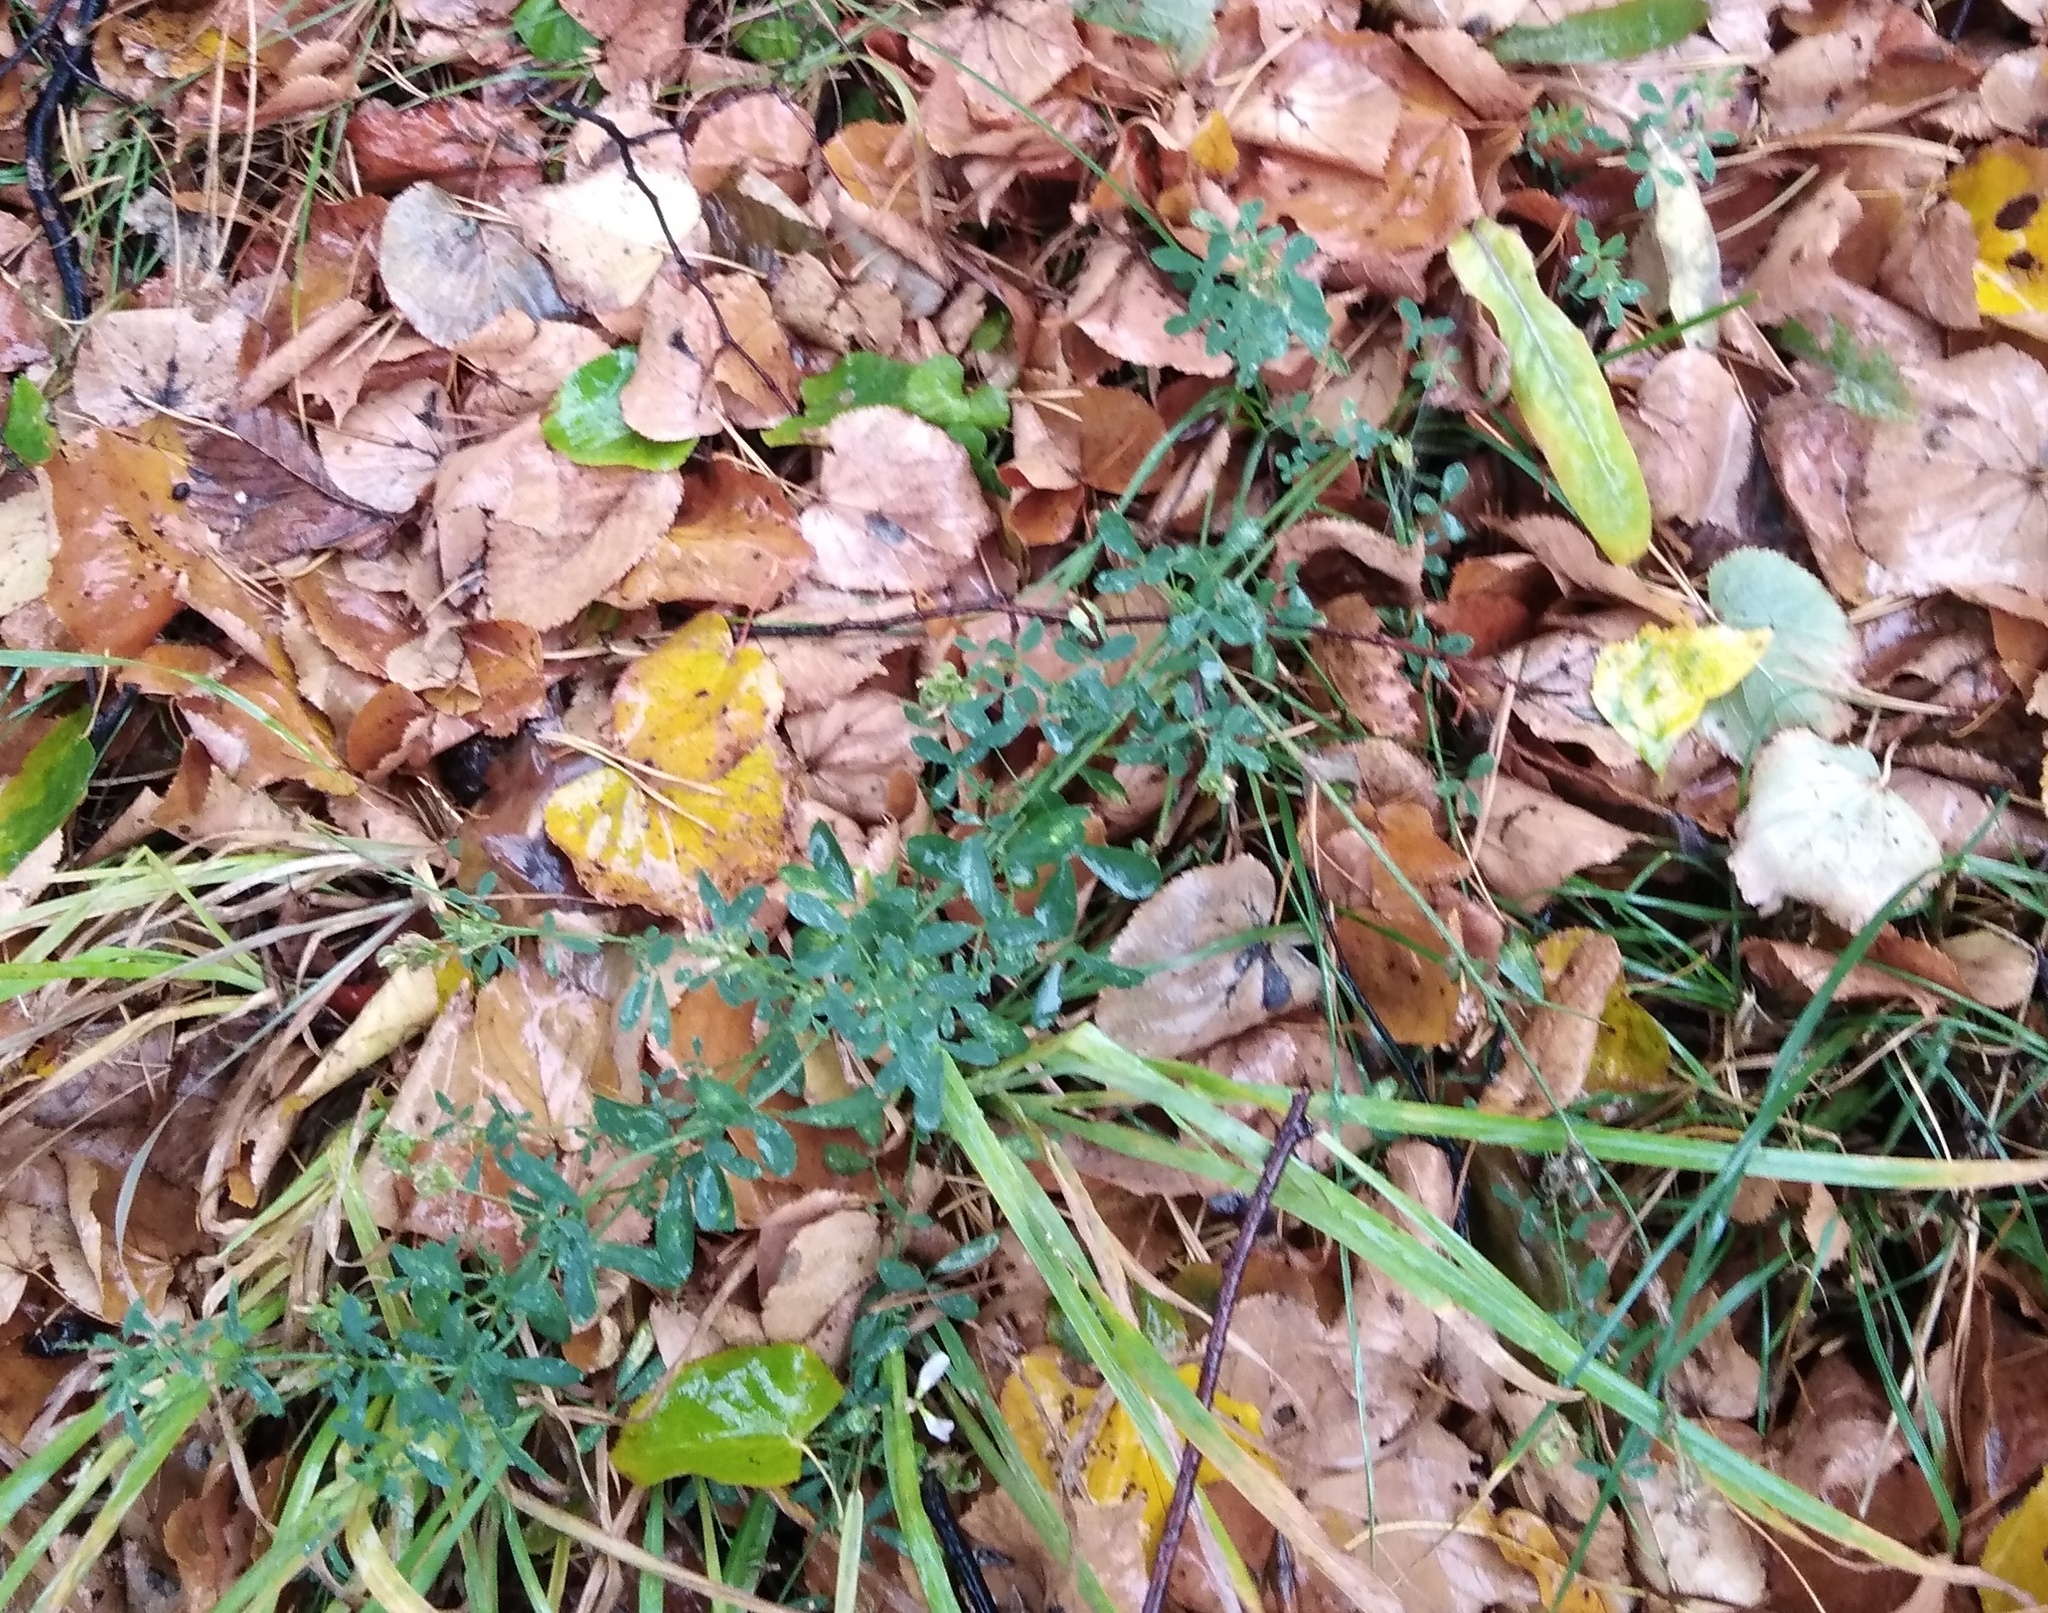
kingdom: Plantae
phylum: Tracheophyta
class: Magnoliopsida
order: Fabales
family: Fabaceae
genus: Medicago
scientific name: Medicago
